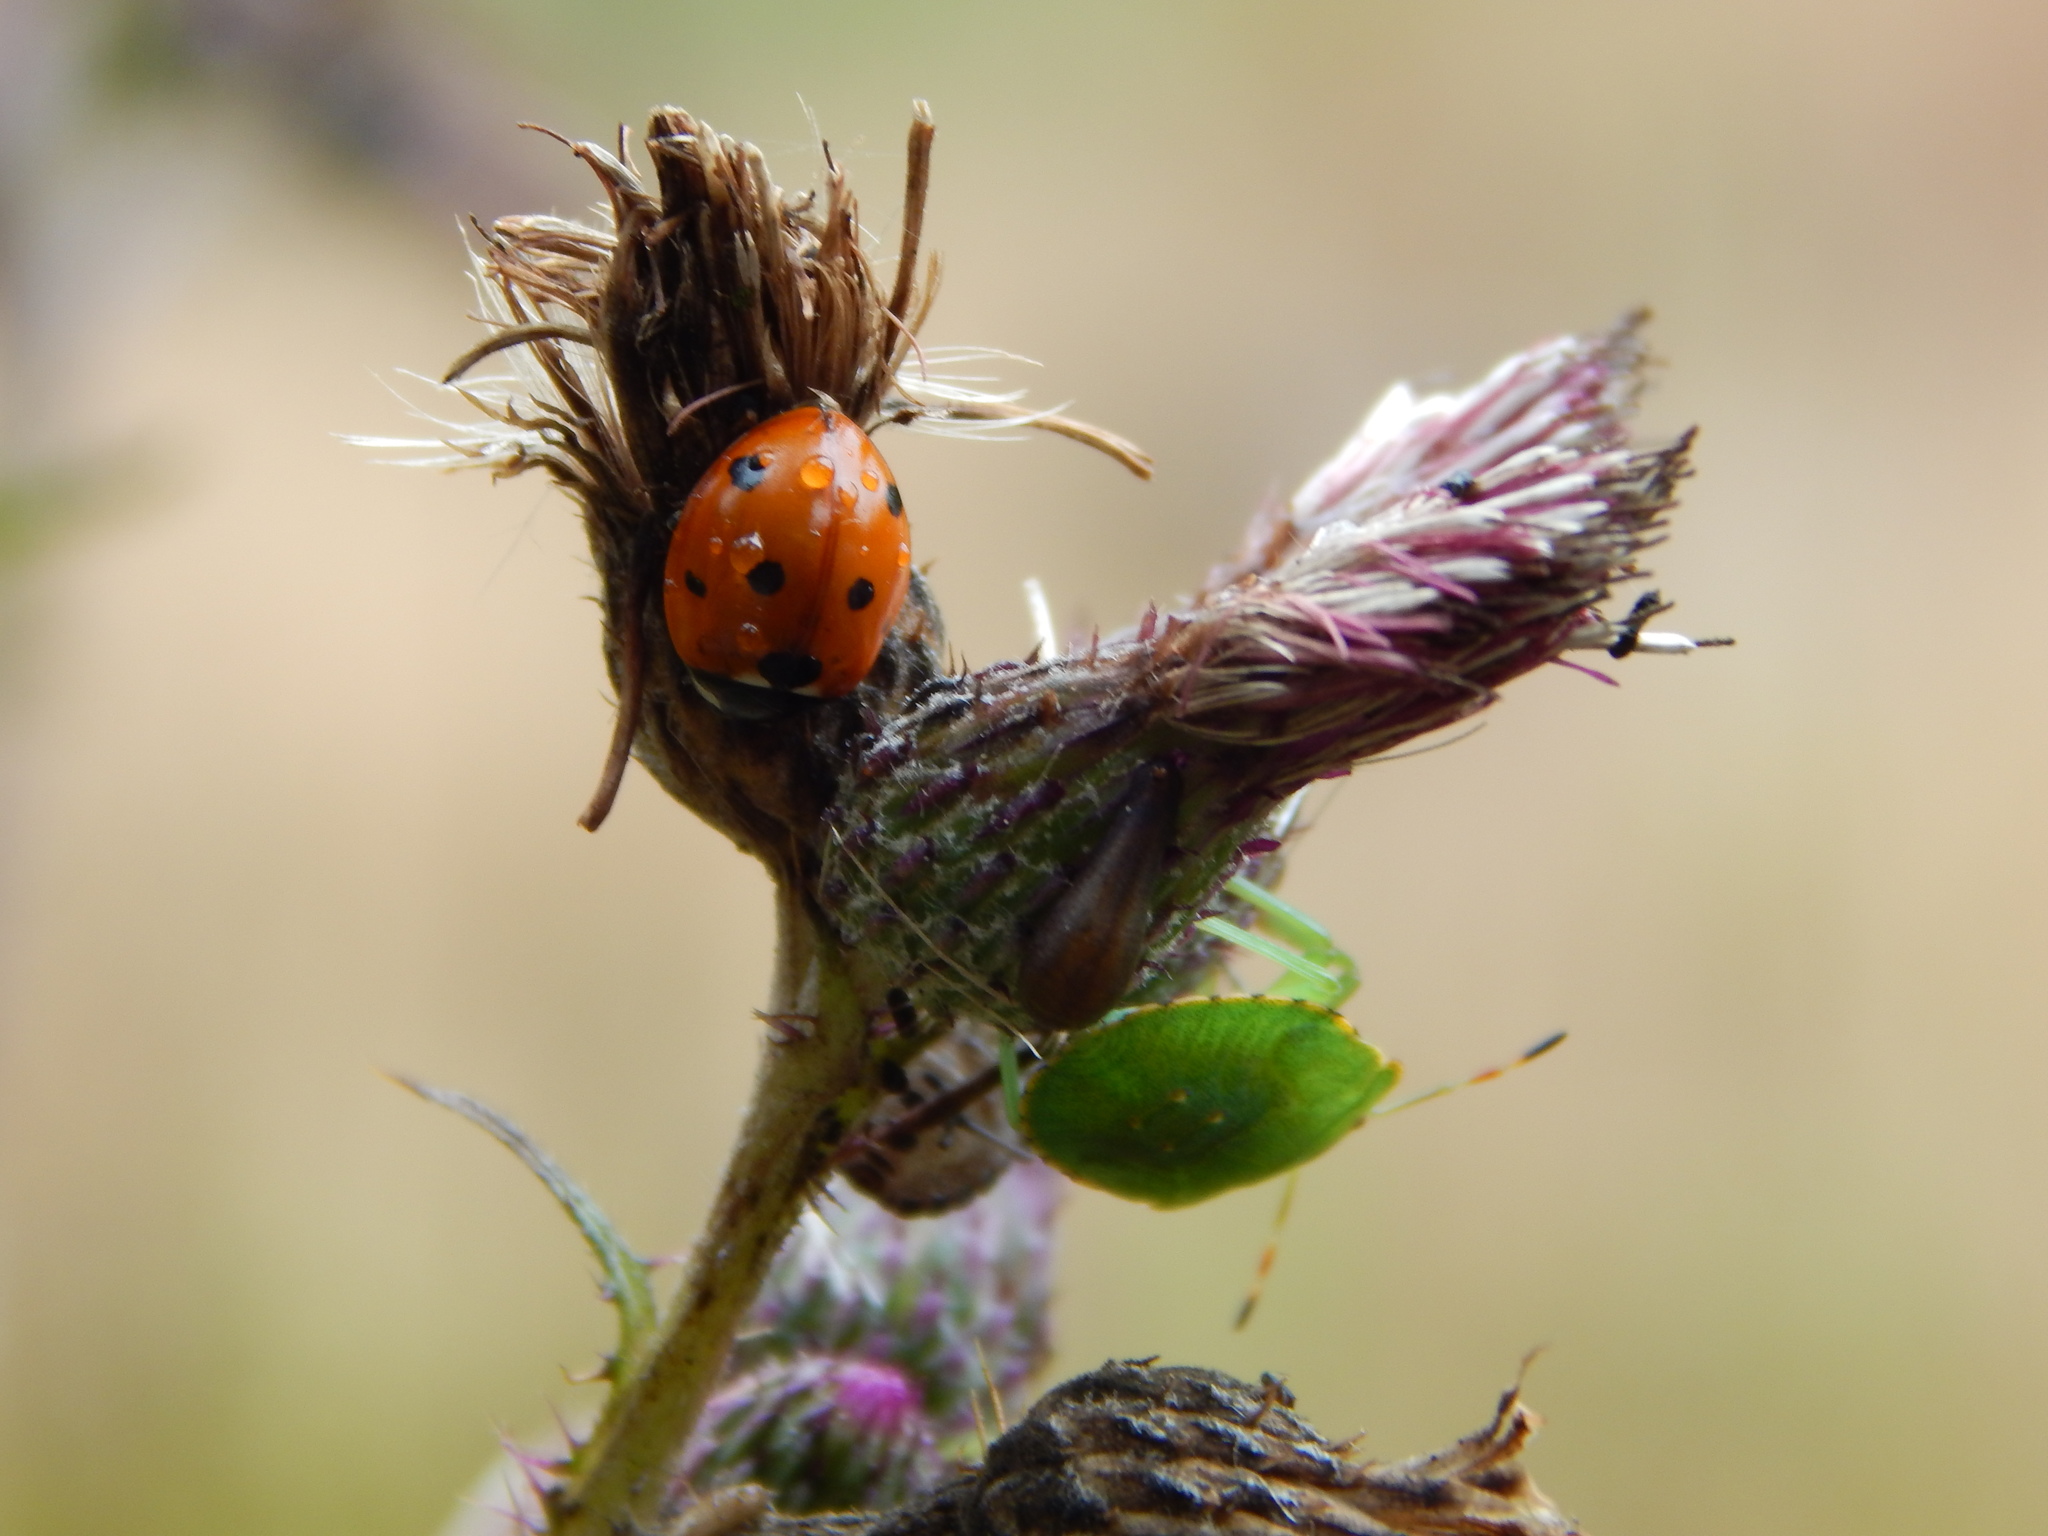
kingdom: Animalia
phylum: Arthropoda
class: Insecta
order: Hemiptera
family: Pentatomidae
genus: Palomena
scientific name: Palomena prasina
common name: Green shieldbug
